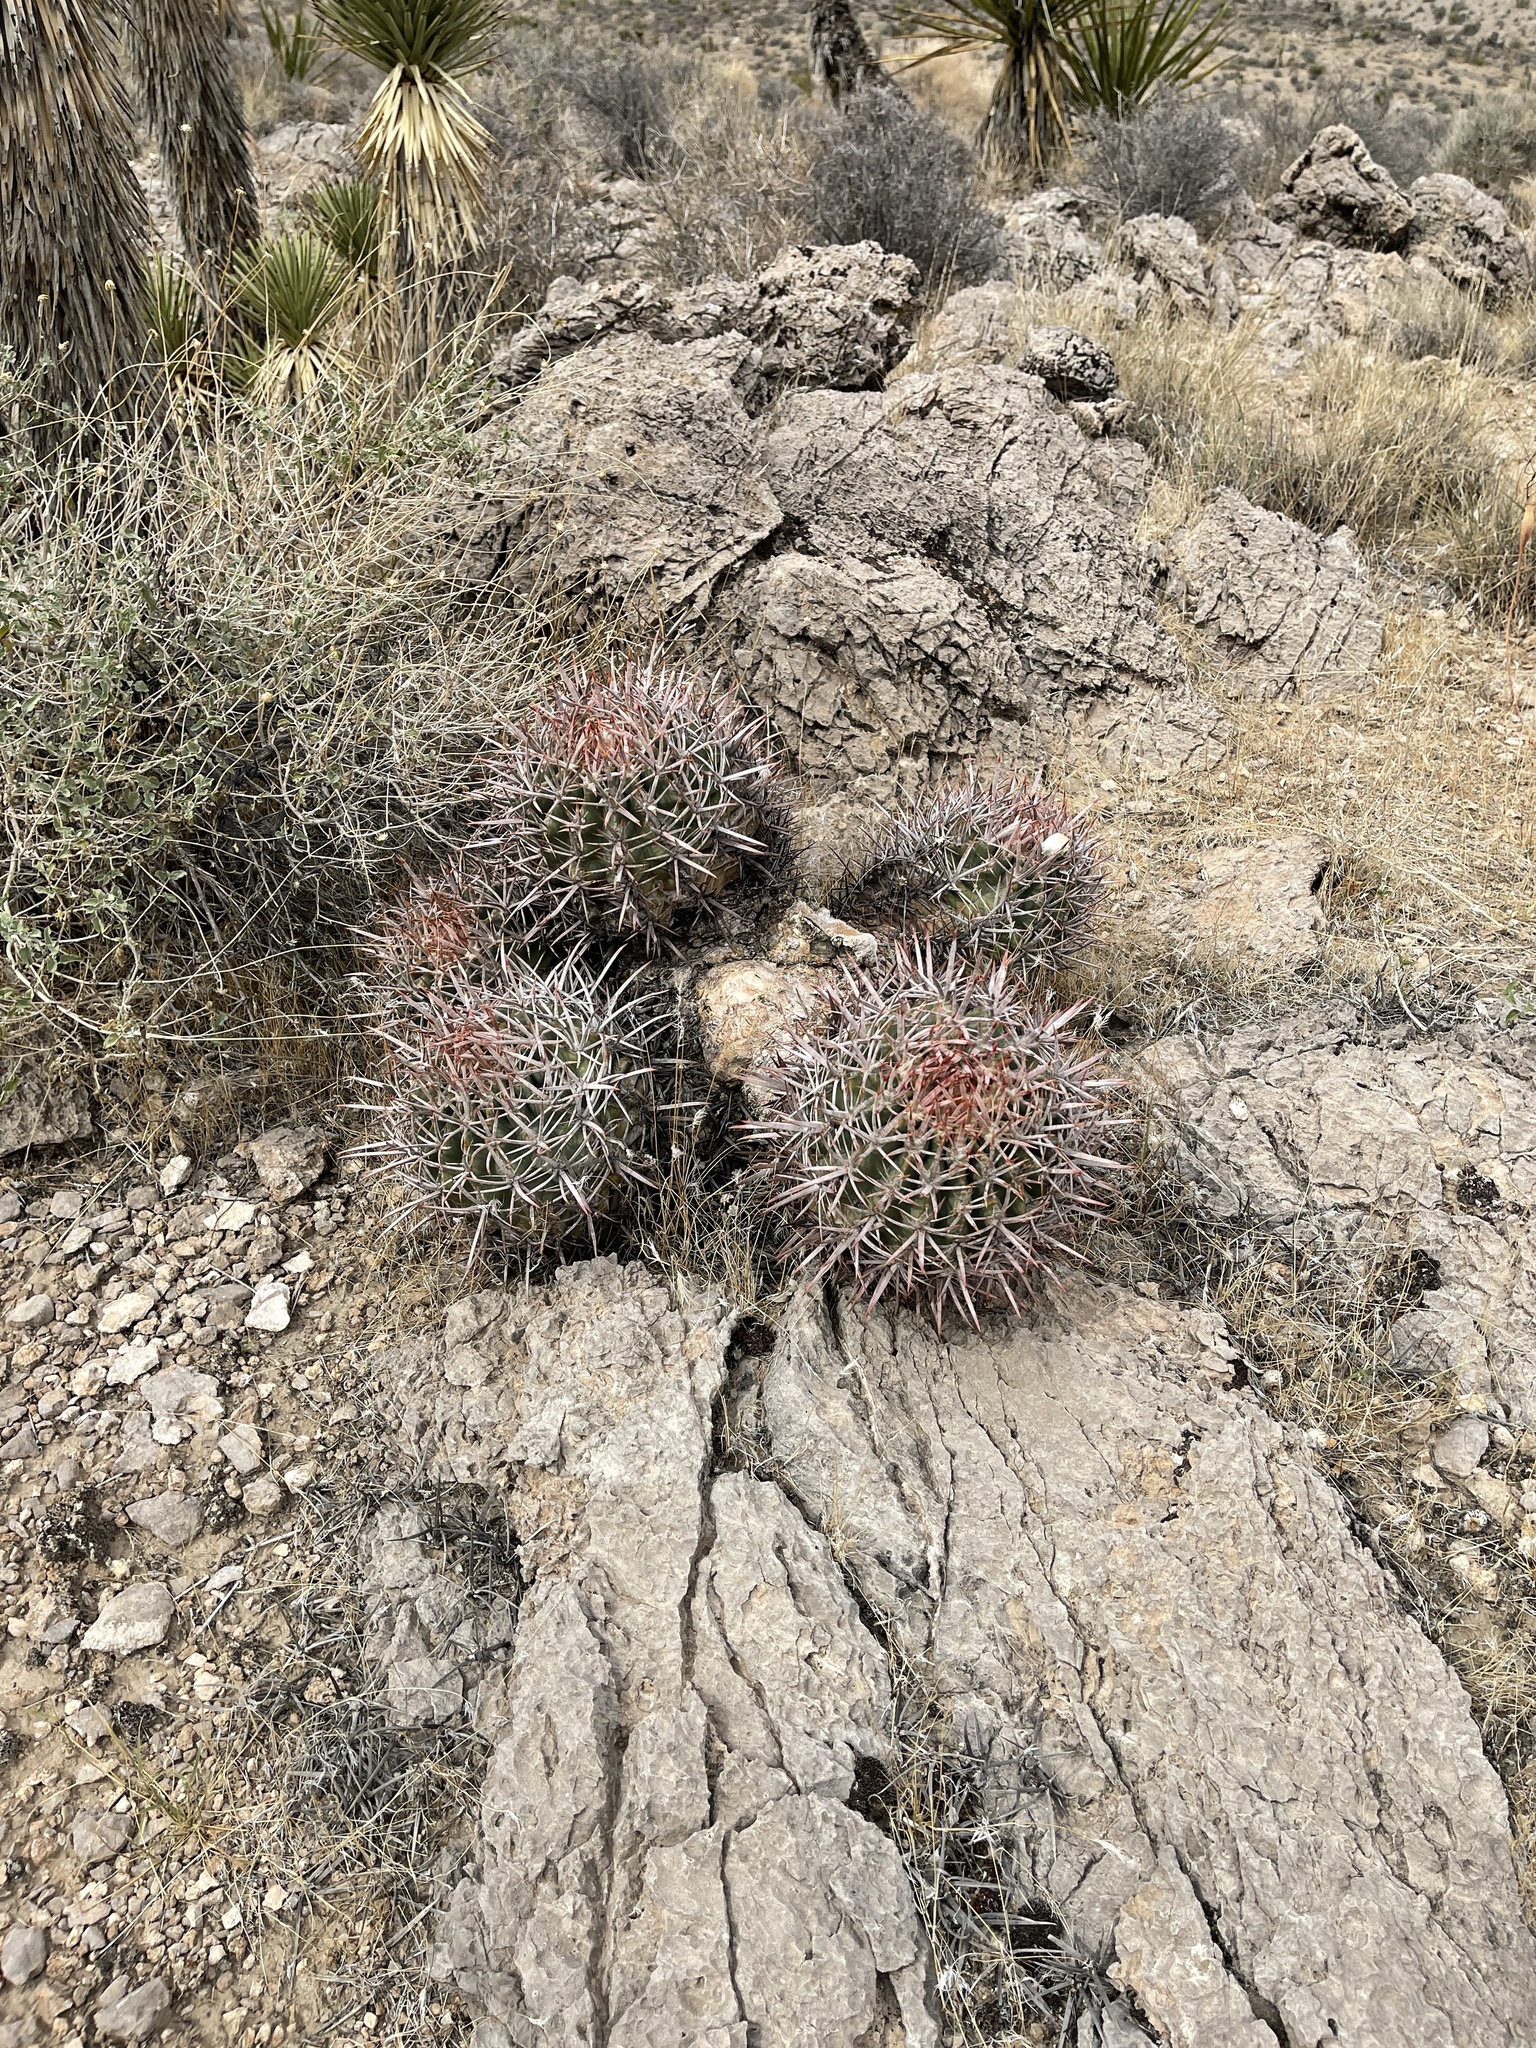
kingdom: Plantae
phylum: Tracheophyta
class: Magnoliopsida
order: Caryophyllales
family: Cactaceae
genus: Echinocactus
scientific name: Echinocactus polycephalus
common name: Cottontop cactus
